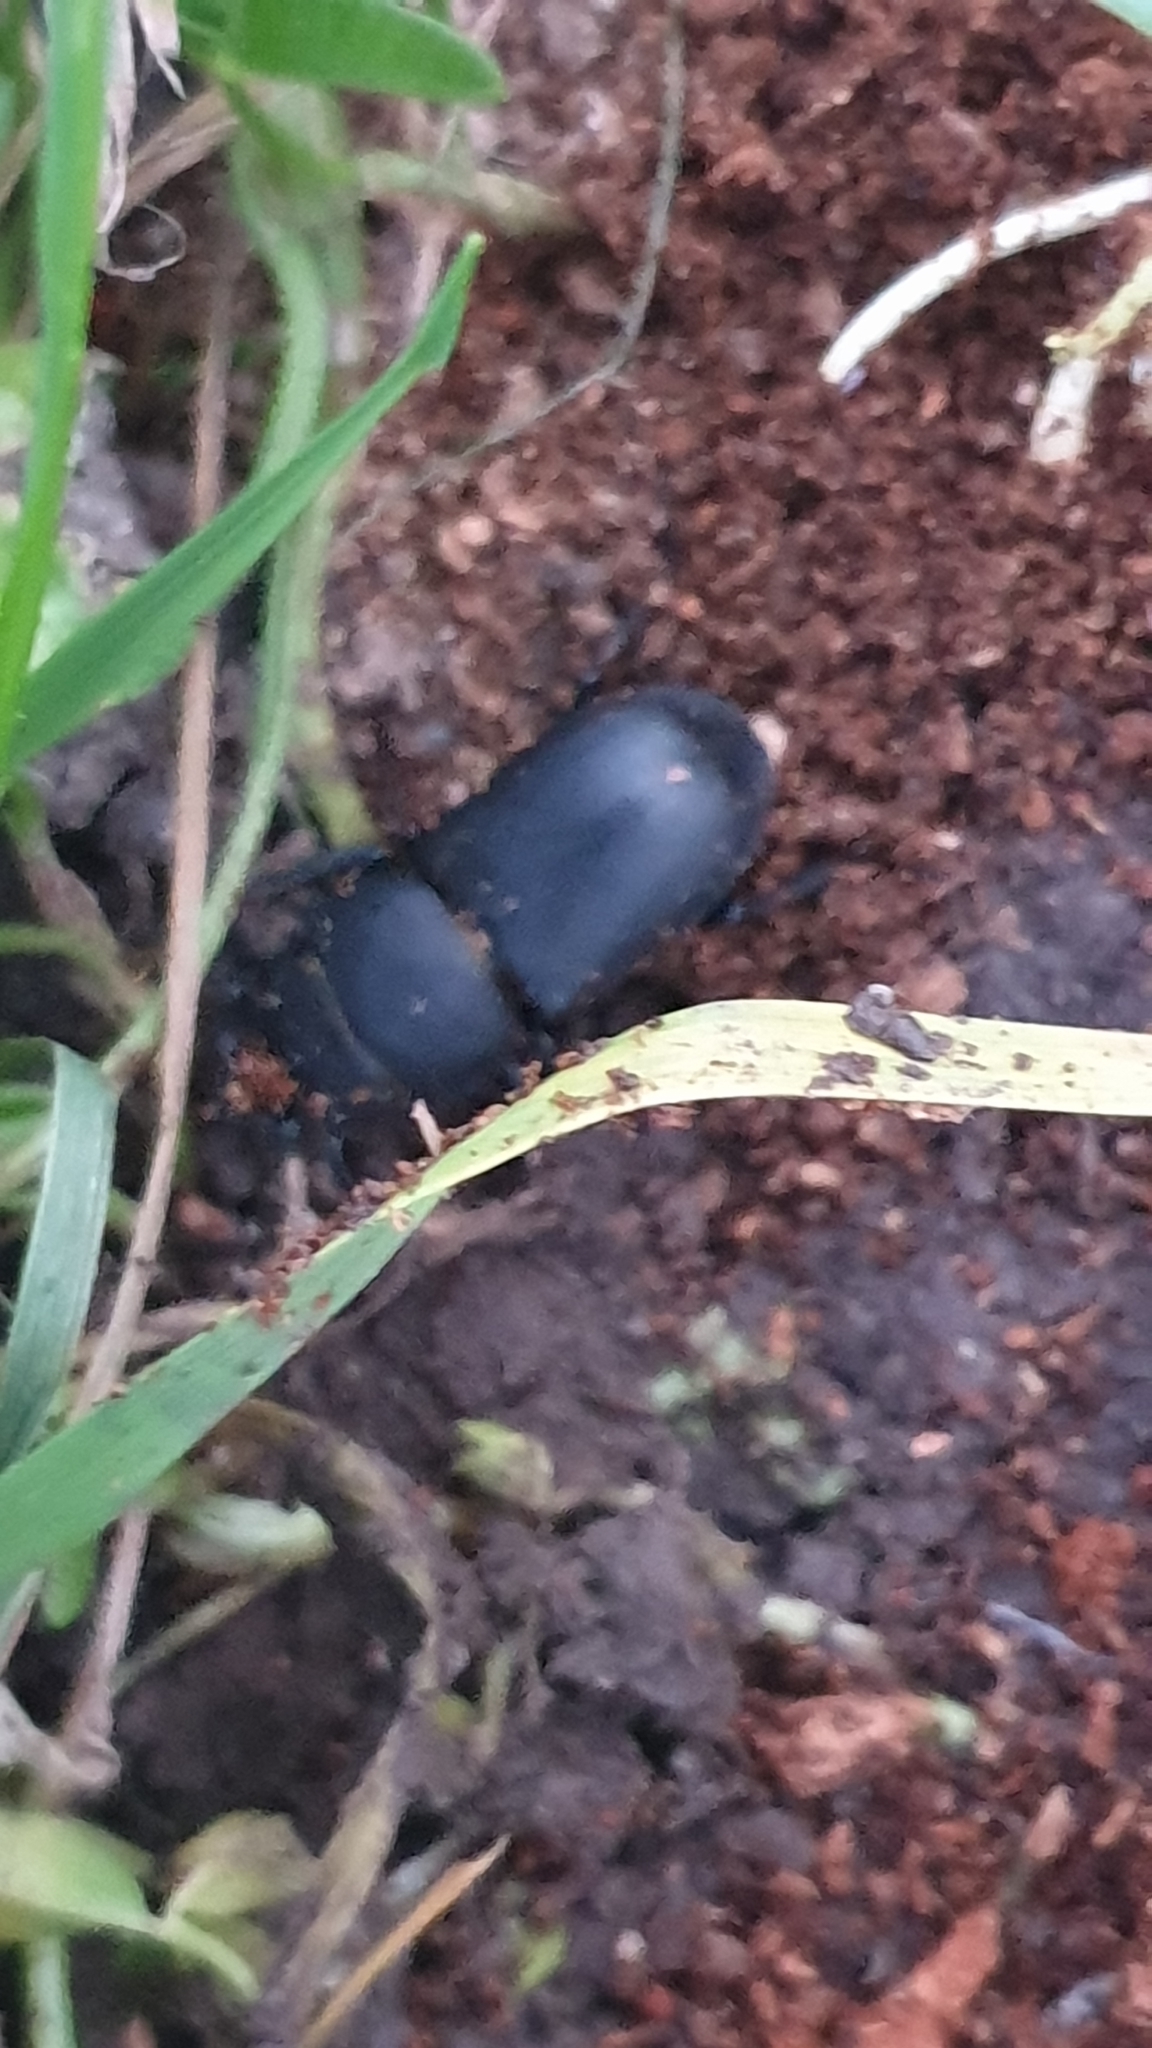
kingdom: Animalia
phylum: Arthropoda
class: Insecta
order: Coleoptera
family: Lucanidae
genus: Dorcus
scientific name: Dorcus parallelipipedus
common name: Lesser stag beetle
